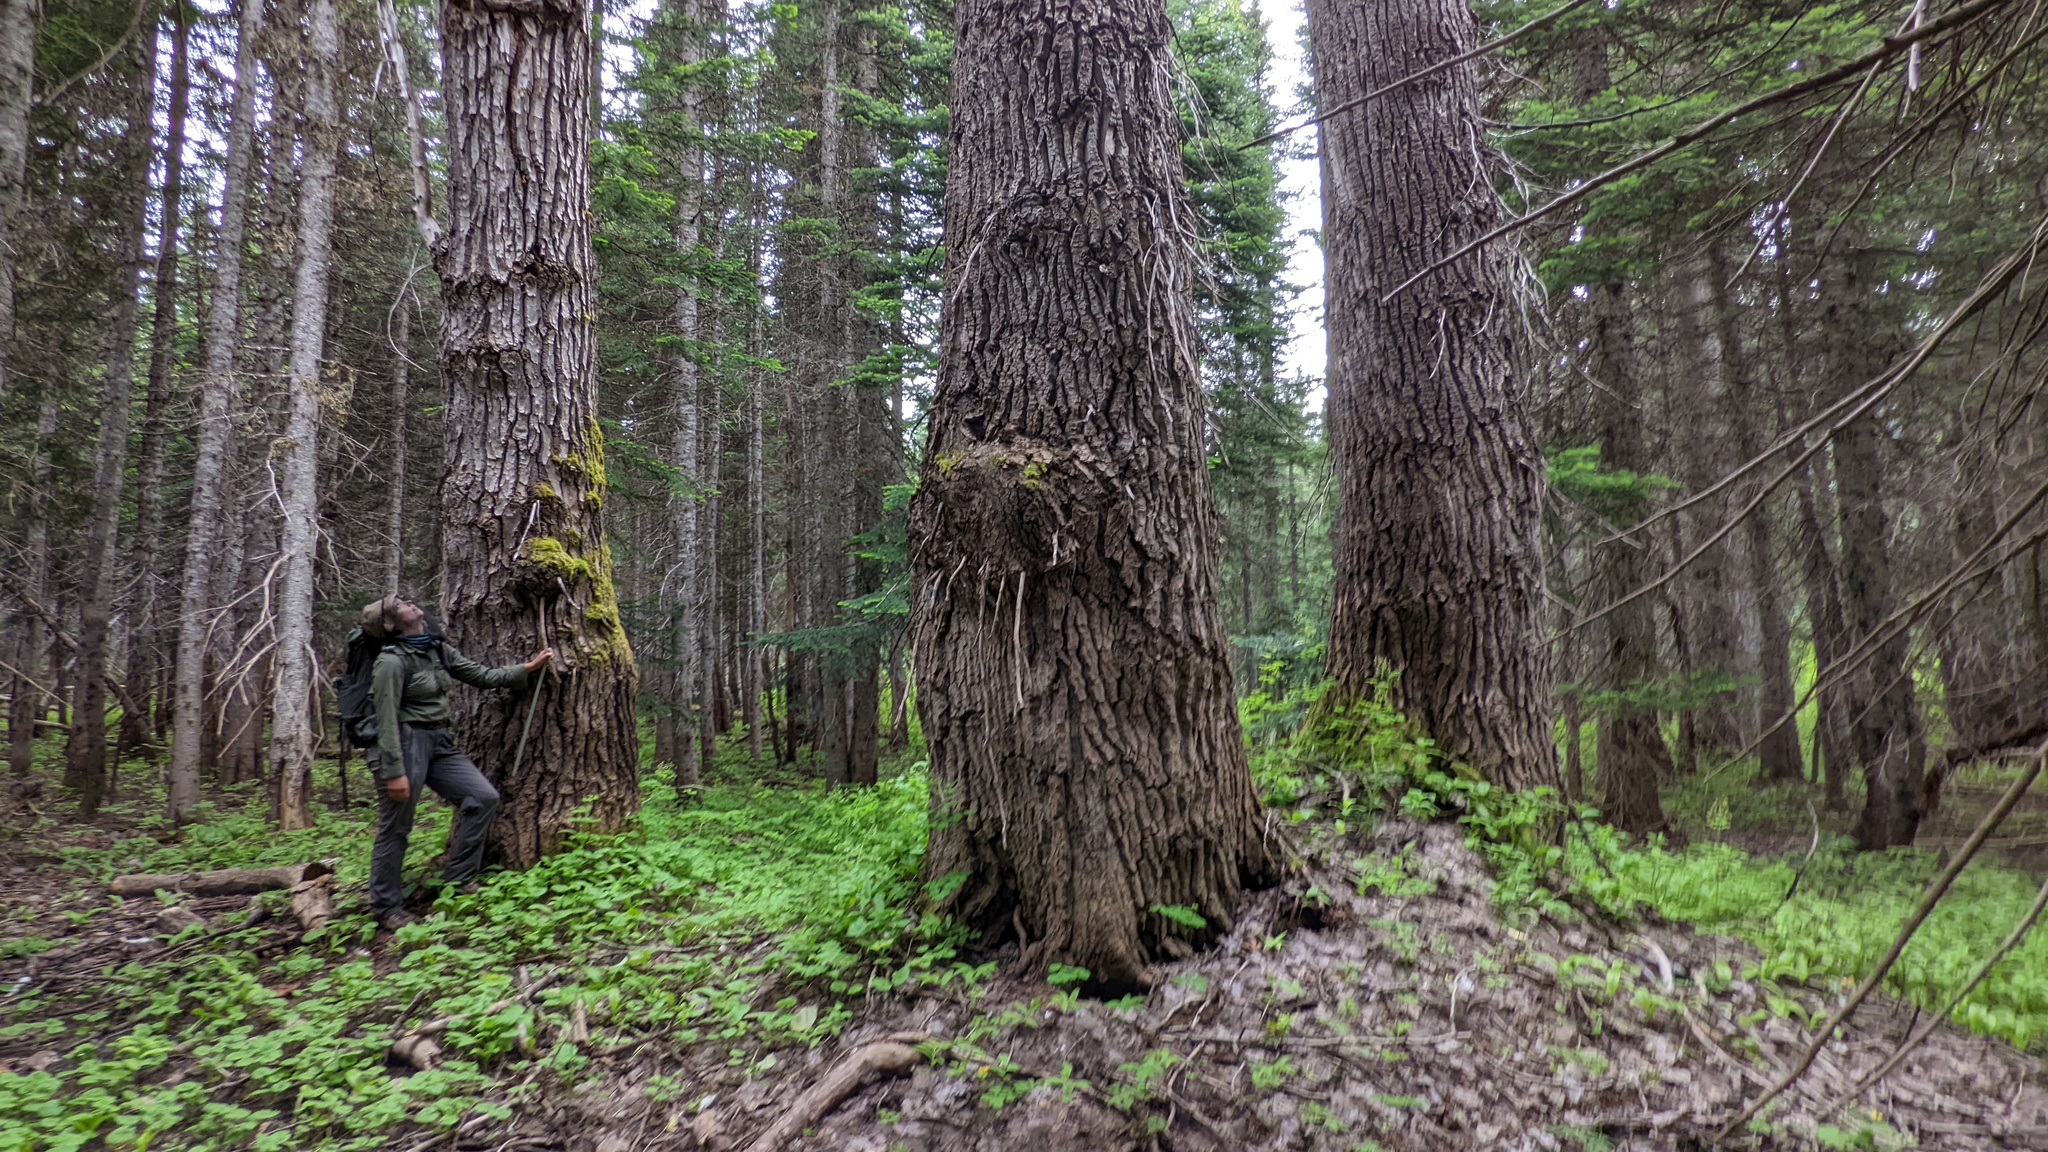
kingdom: Plantae
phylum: Tracheophyta
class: Magnoliopsida
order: Malpighiales
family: Salicaceae
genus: Populus
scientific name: Populus trichocarpa
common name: Black cottonwood
